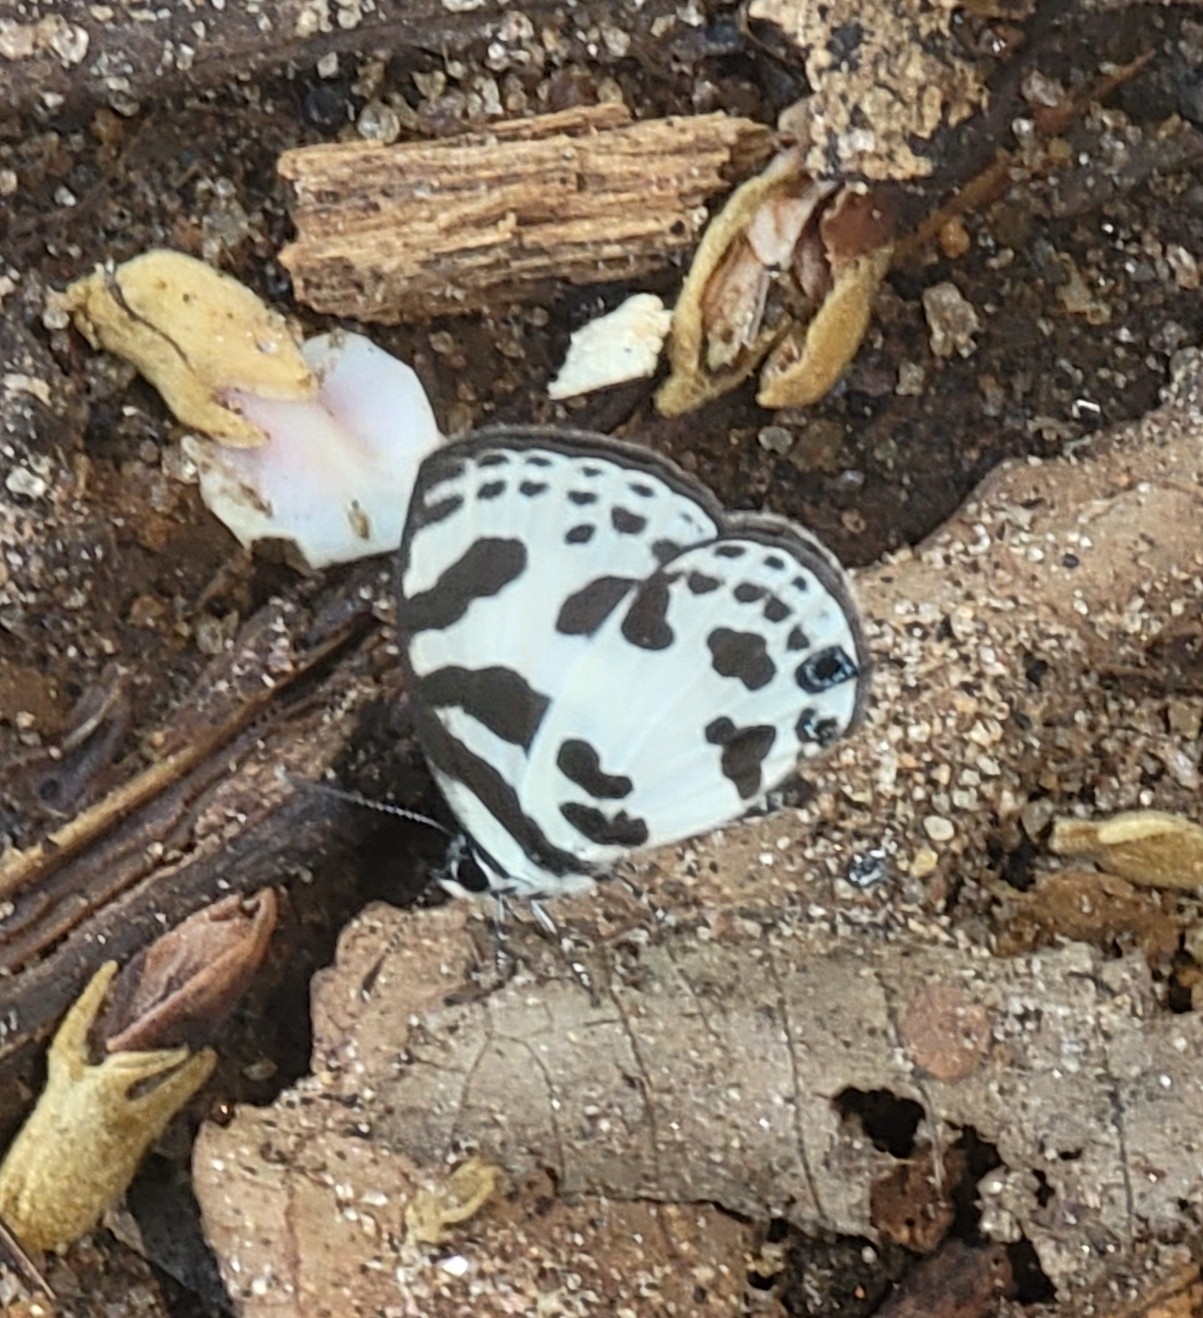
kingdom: Animalia
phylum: Arthropoda
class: Insecta
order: Lepidoptera
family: Lycaenidae
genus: Discolampa
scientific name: Discolampa ethion
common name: Banded blue pierrot
